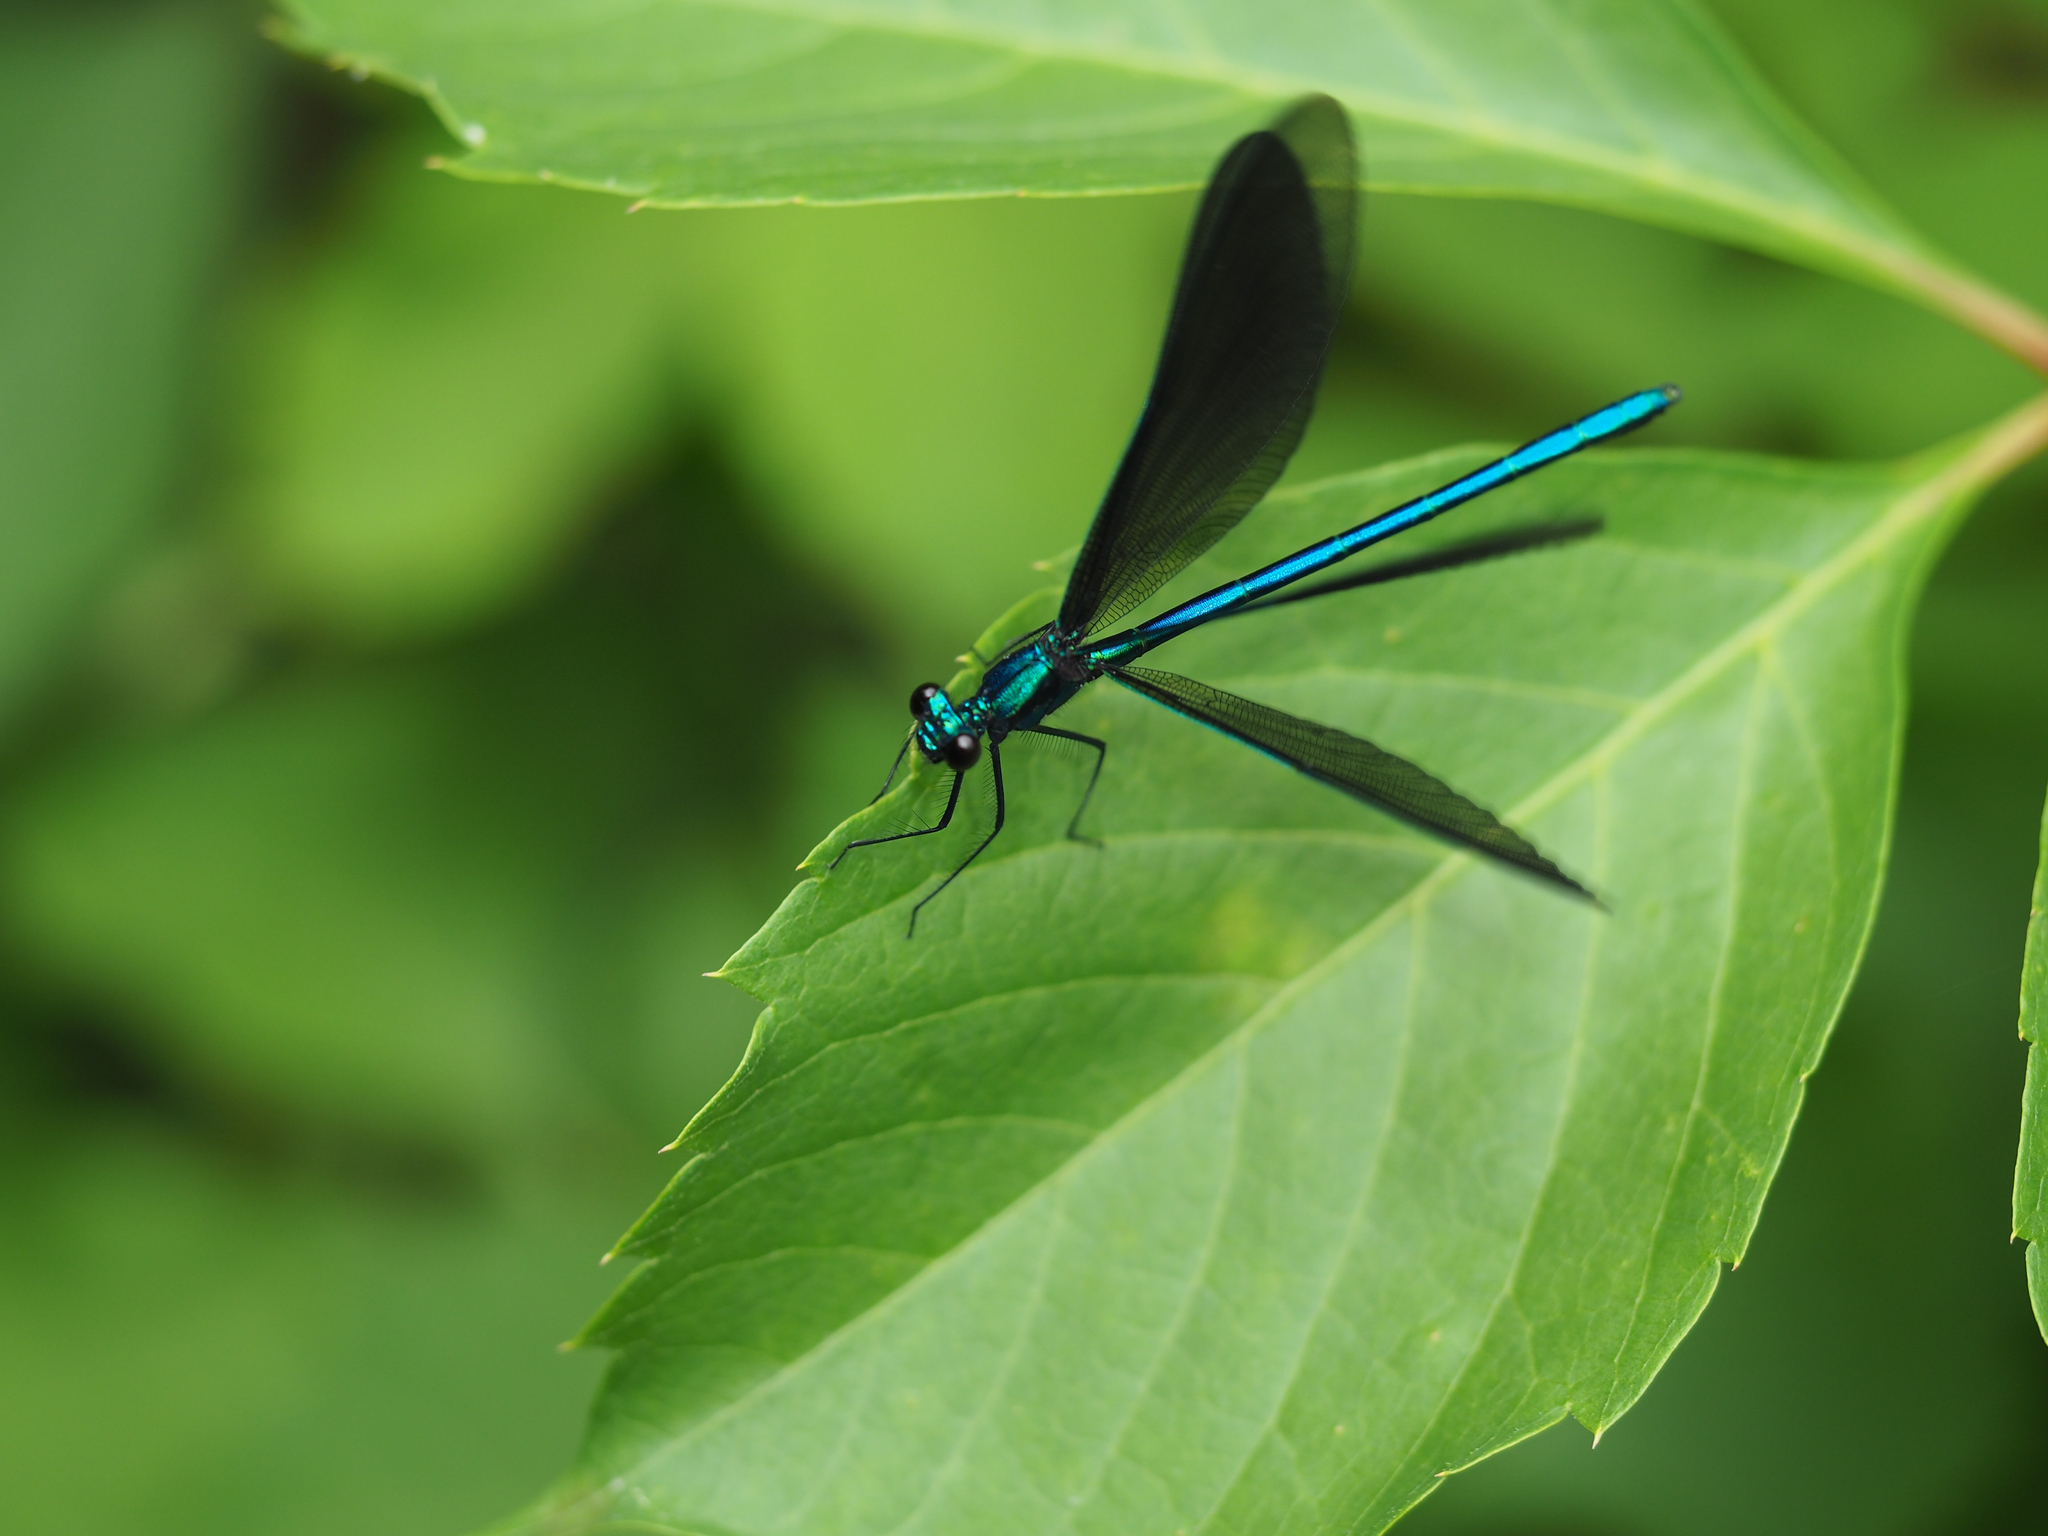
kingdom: Animalia
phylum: Arthropoda
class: Insecta
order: Odonata
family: Calopterygidae
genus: Calopteryx
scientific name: Calopteryx maculata
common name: Ebony jewelwing
